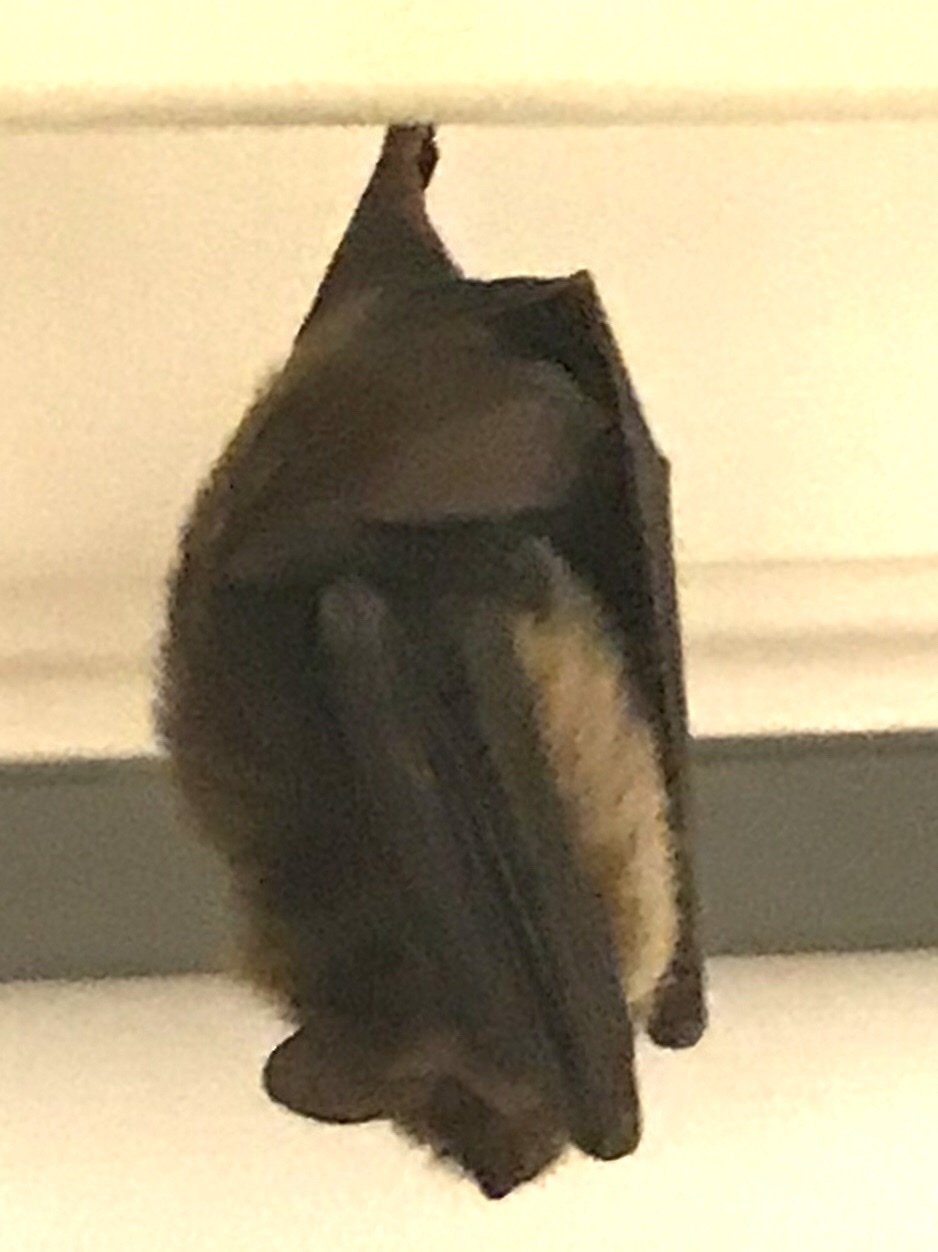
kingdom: Animalia
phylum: Chordata
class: Mammalia
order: Chiroptera
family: Vespertilionidae
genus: Eptesicus
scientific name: Eptesicus fuscus
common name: Big brown bat
